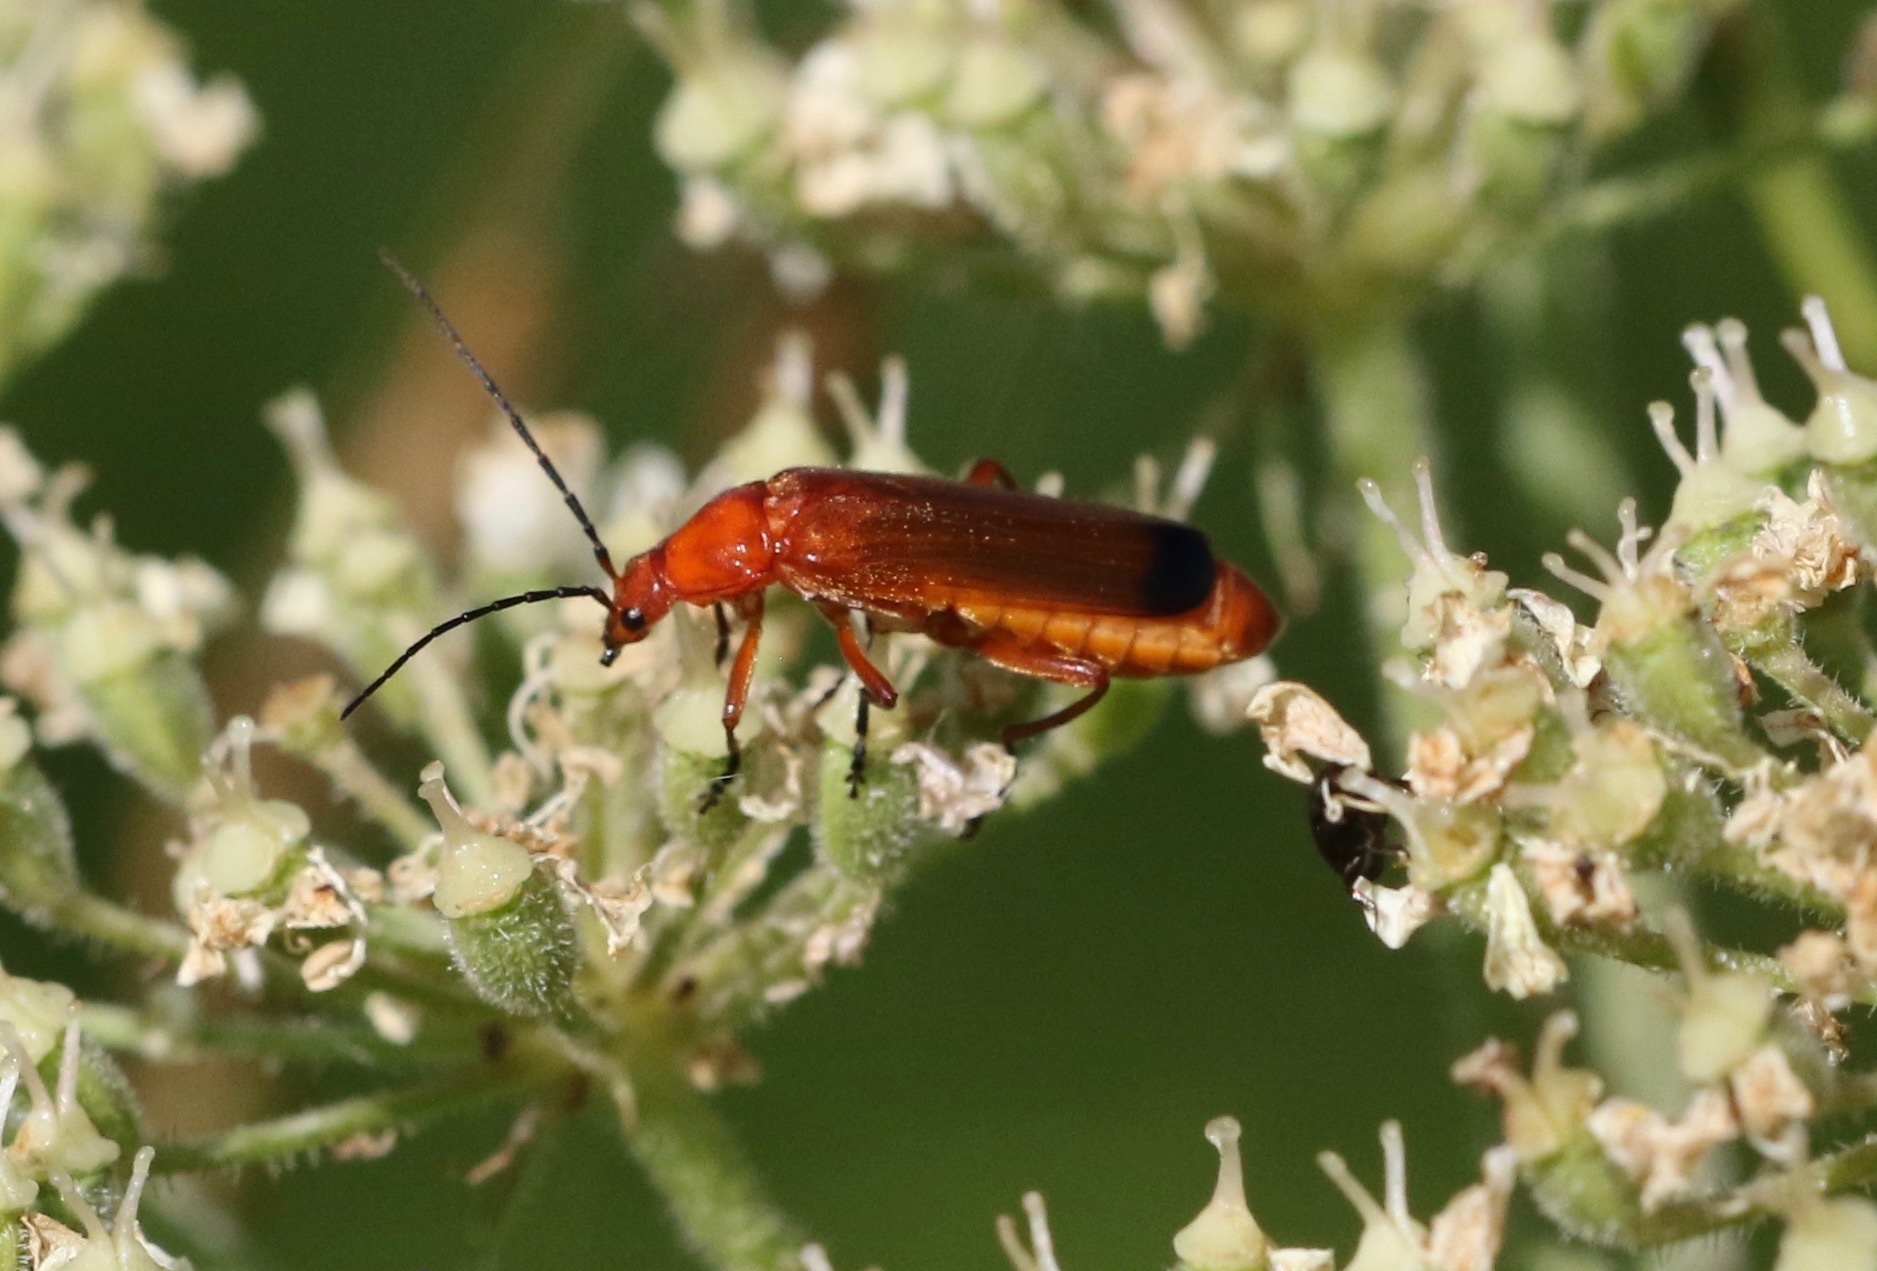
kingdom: Animalia
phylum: Arthropoda
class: Insecta
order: Coleoptera
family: Cantharidae
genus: Rhagonycha
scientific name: Rhagonycha fulva
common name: Common red soldier beetle
